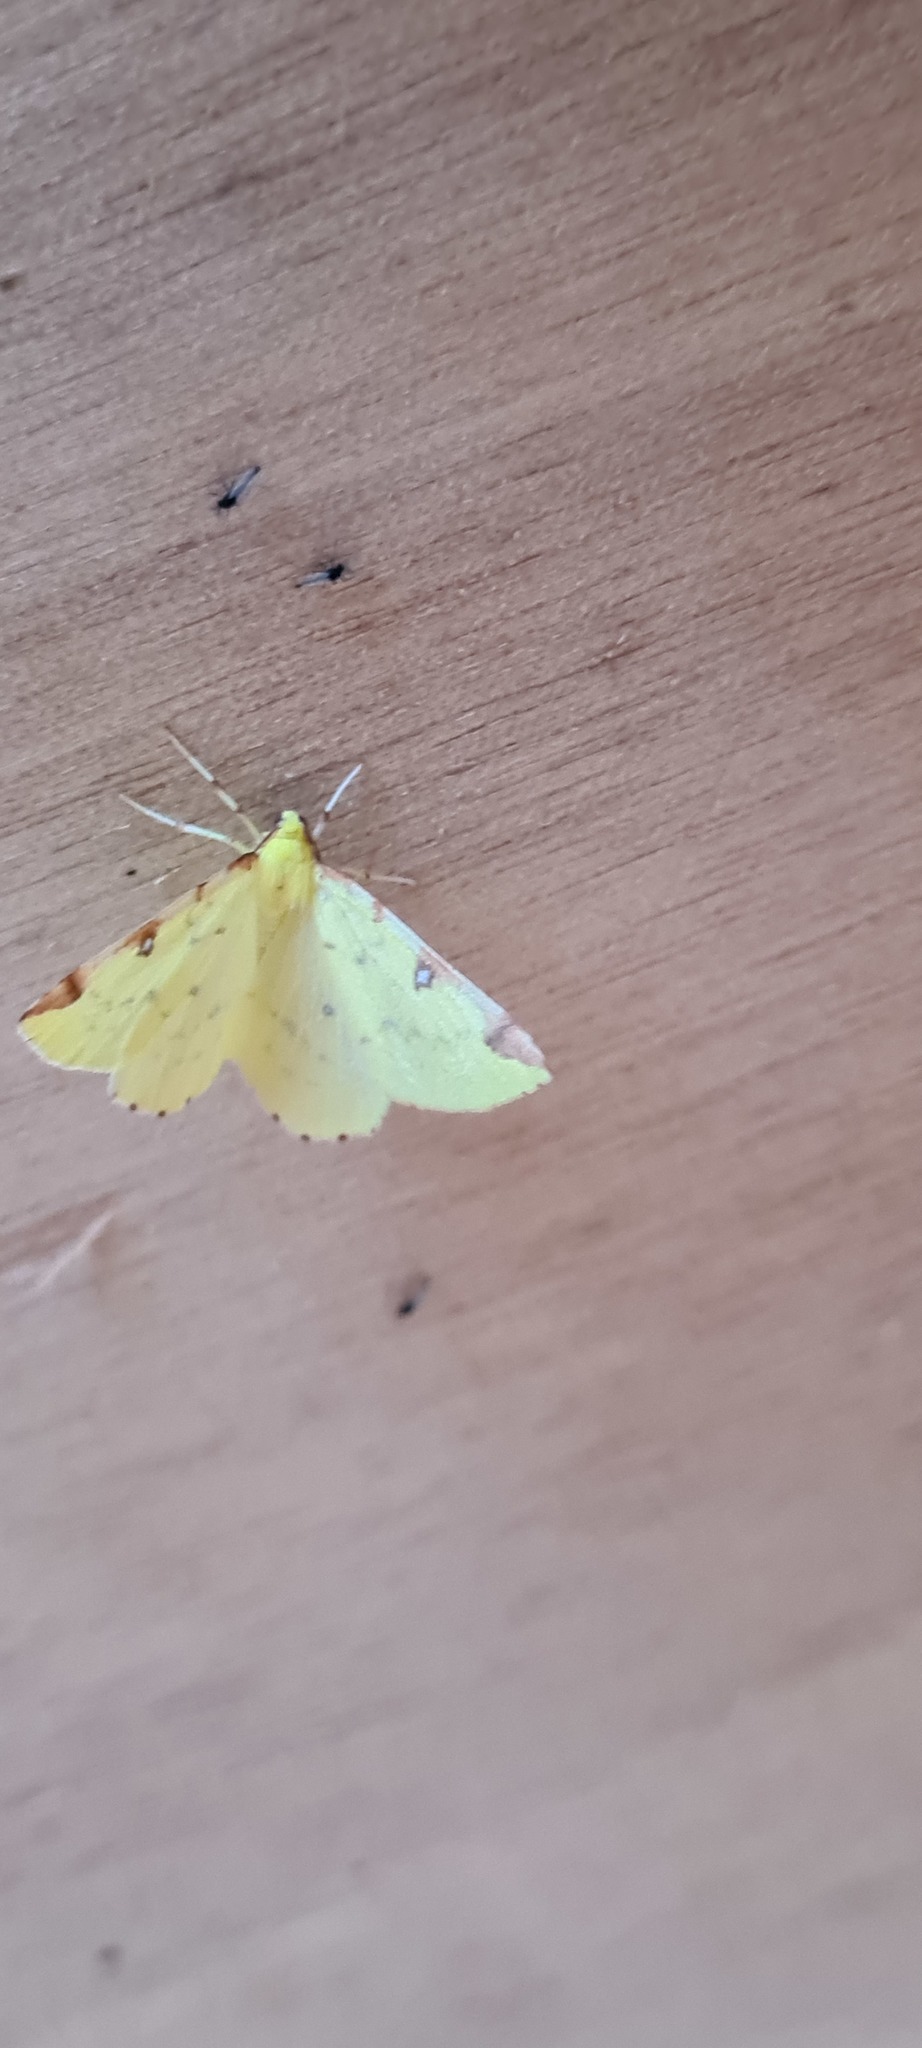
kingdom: Animalia
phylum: Arthropoda
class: Insecta
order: Lepidoptera
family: Geometridae
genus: Opisthograptis
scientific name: Opisthograptis luteolata
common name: Brimstone moth
